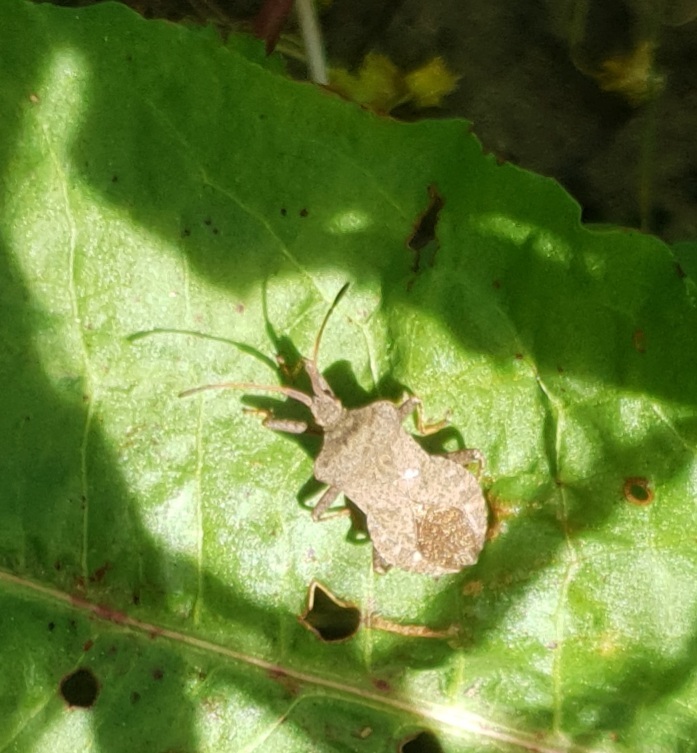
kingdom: Animalia
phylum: Arthropoda
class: Insecta
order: Hemiptera
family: Coreidae
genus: Coreus
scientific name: Coreus marginatus
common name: Dock bug
